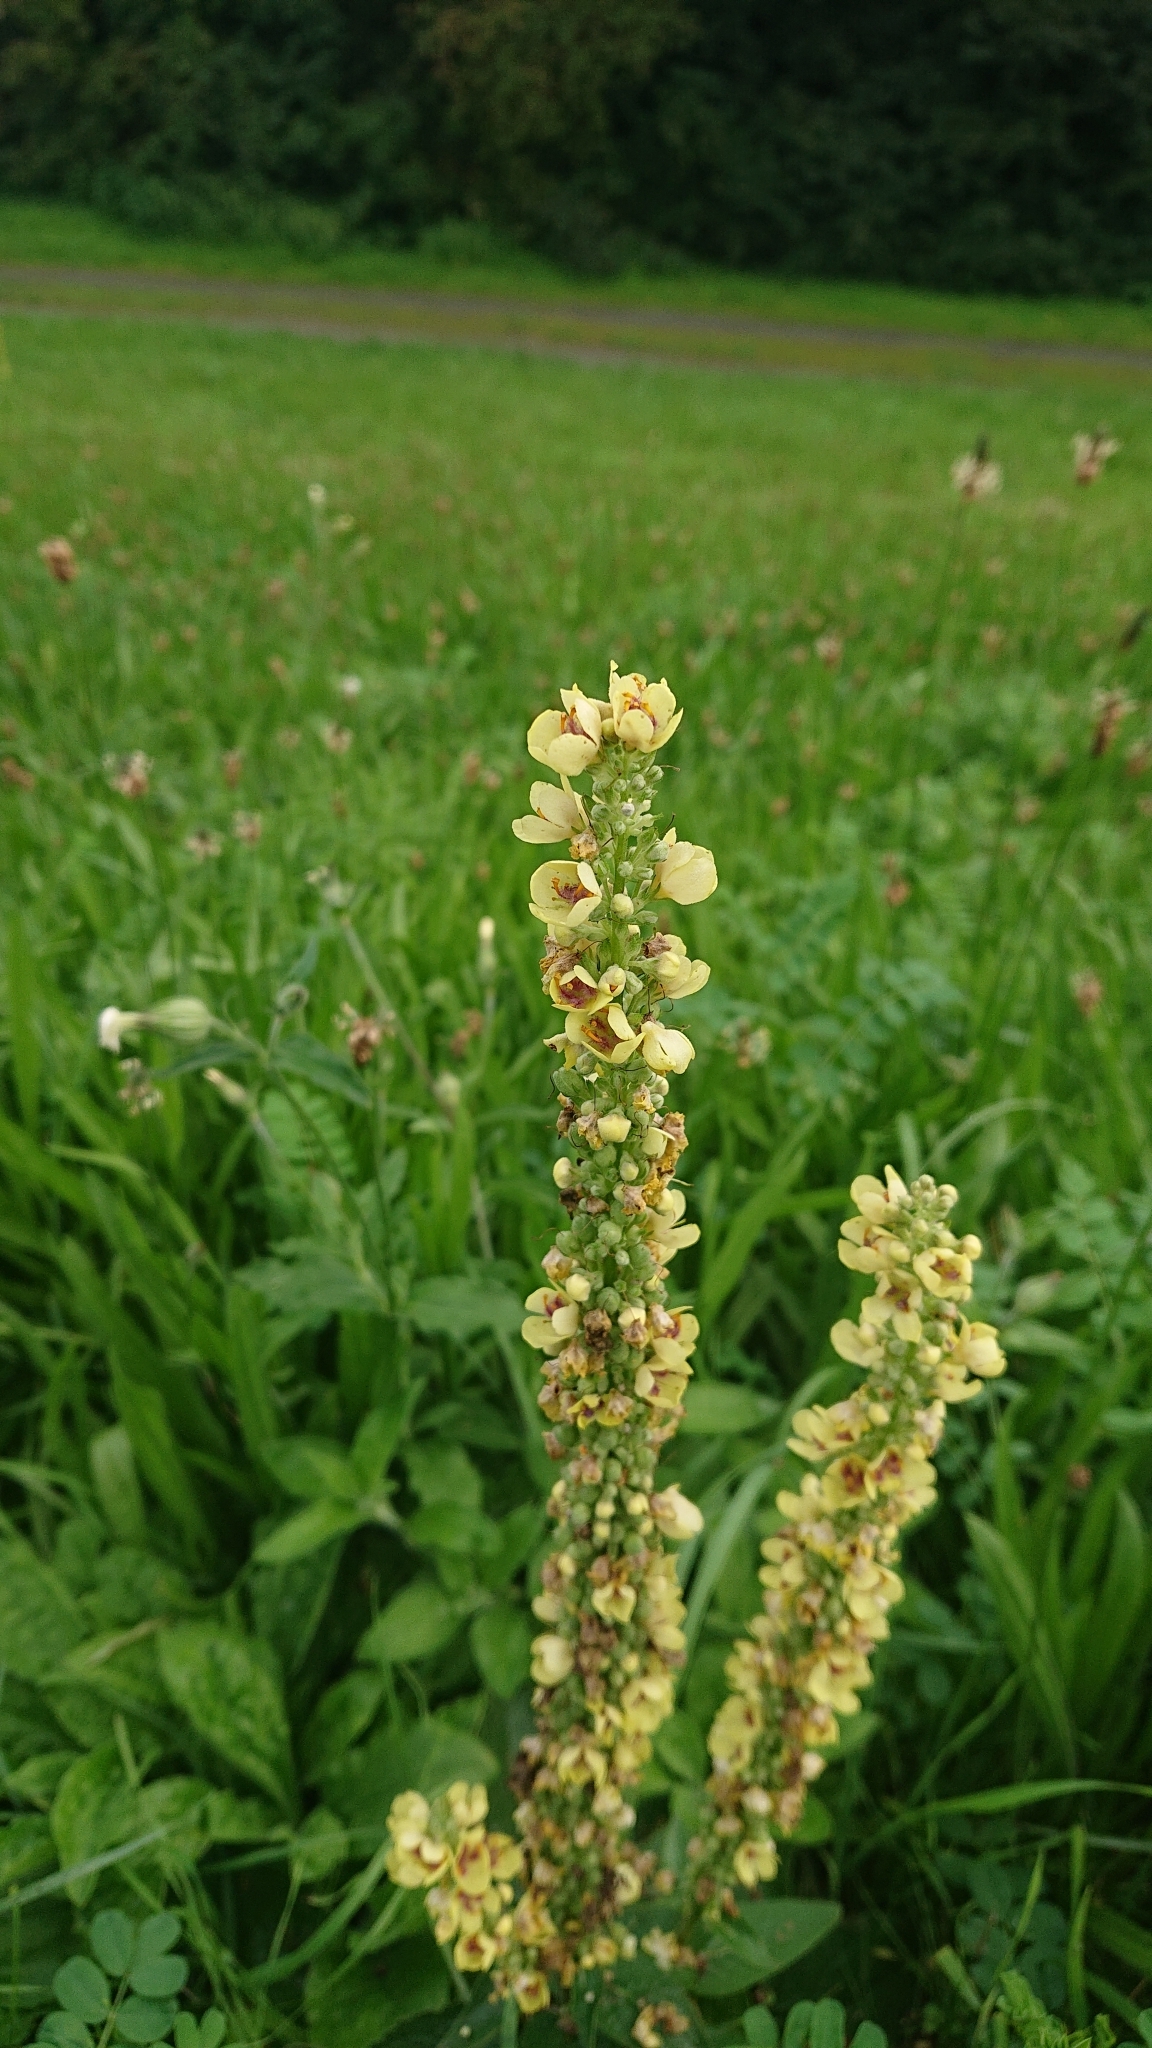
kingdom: Plantae
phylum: Tracheophyta
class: Magnoliopsida
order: Lamiales
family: Scrophulariaceae
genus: Verbascum
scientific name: Verbascum nigrum
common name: Dark mullein
